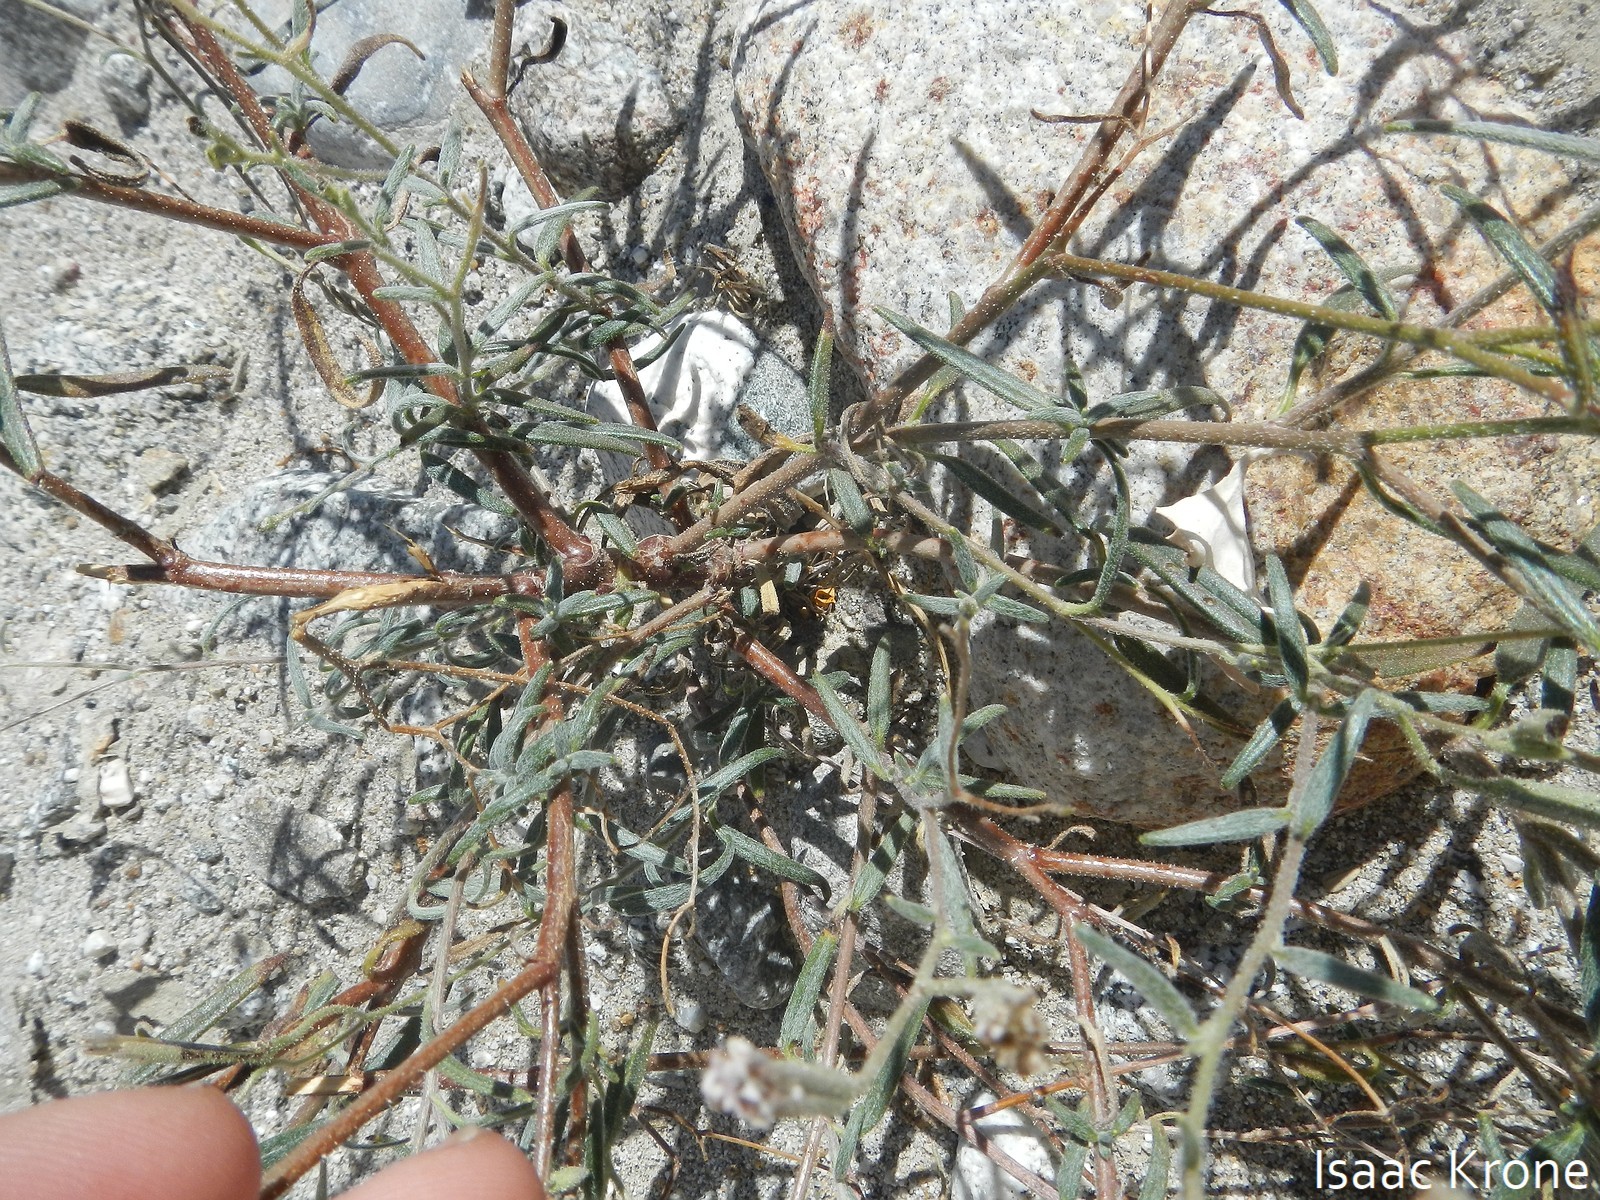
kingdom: Plantae
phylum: Tracheophyta
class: Magnoliopsida
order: Asterales
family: Asteraceae
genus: Palafoxia
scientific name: Palafoxia arida
